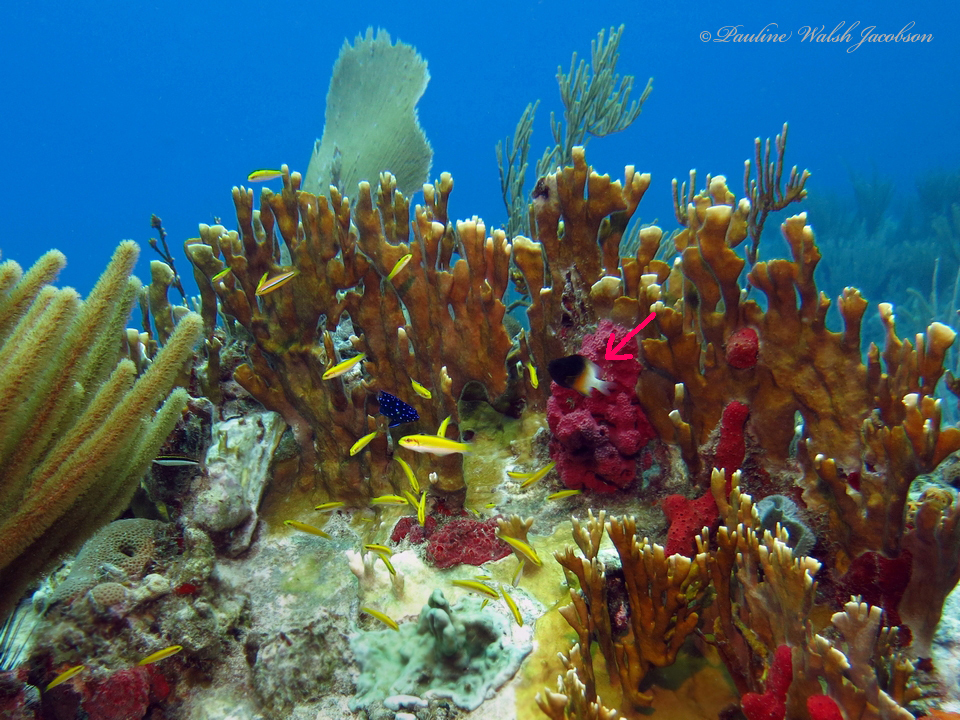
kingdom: Animalia
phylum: Chordata
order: Perciformes
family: Pomacentridae
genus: Stegastes
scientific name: Stegastes partitus
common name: Bicolor damselfish
